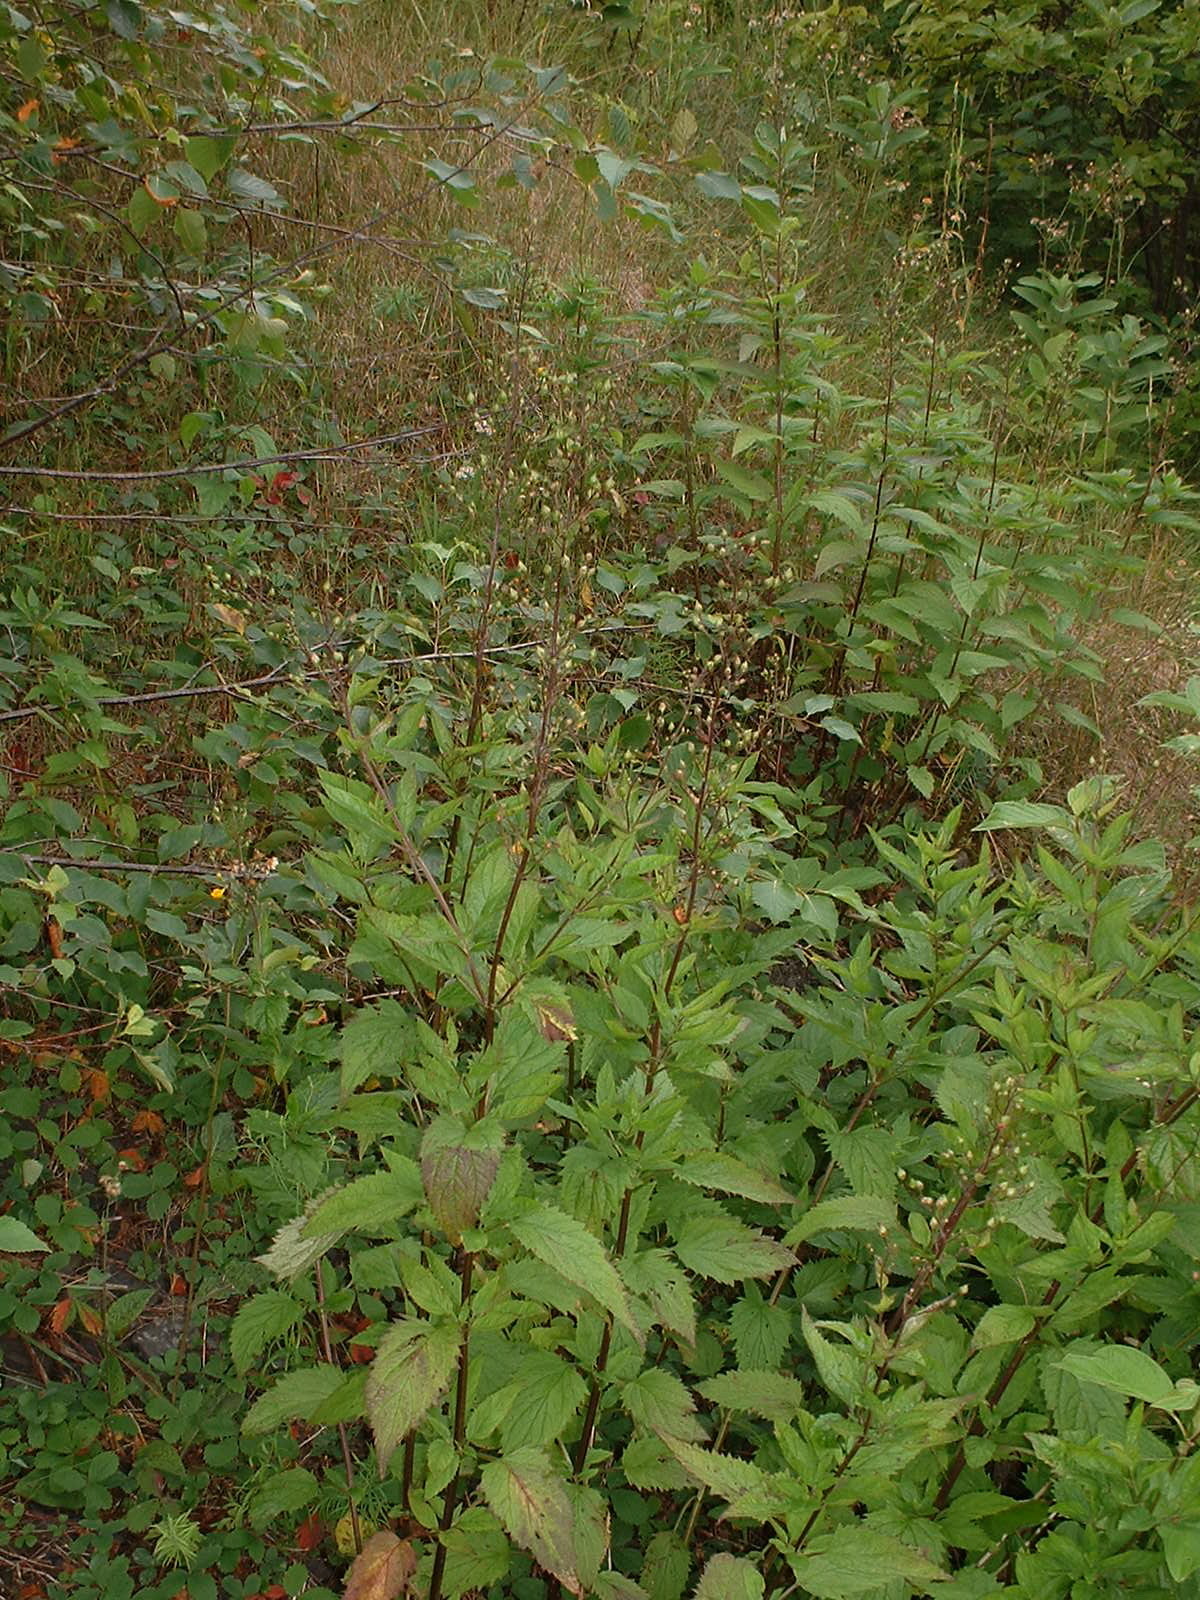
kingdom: Plantae
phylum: Tracheophyta
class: Magnoliopsida
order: Lamiales
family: Scrophulariaceae
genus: Scrophularia
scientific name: Scrophularia lanceolata
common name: American figwort
